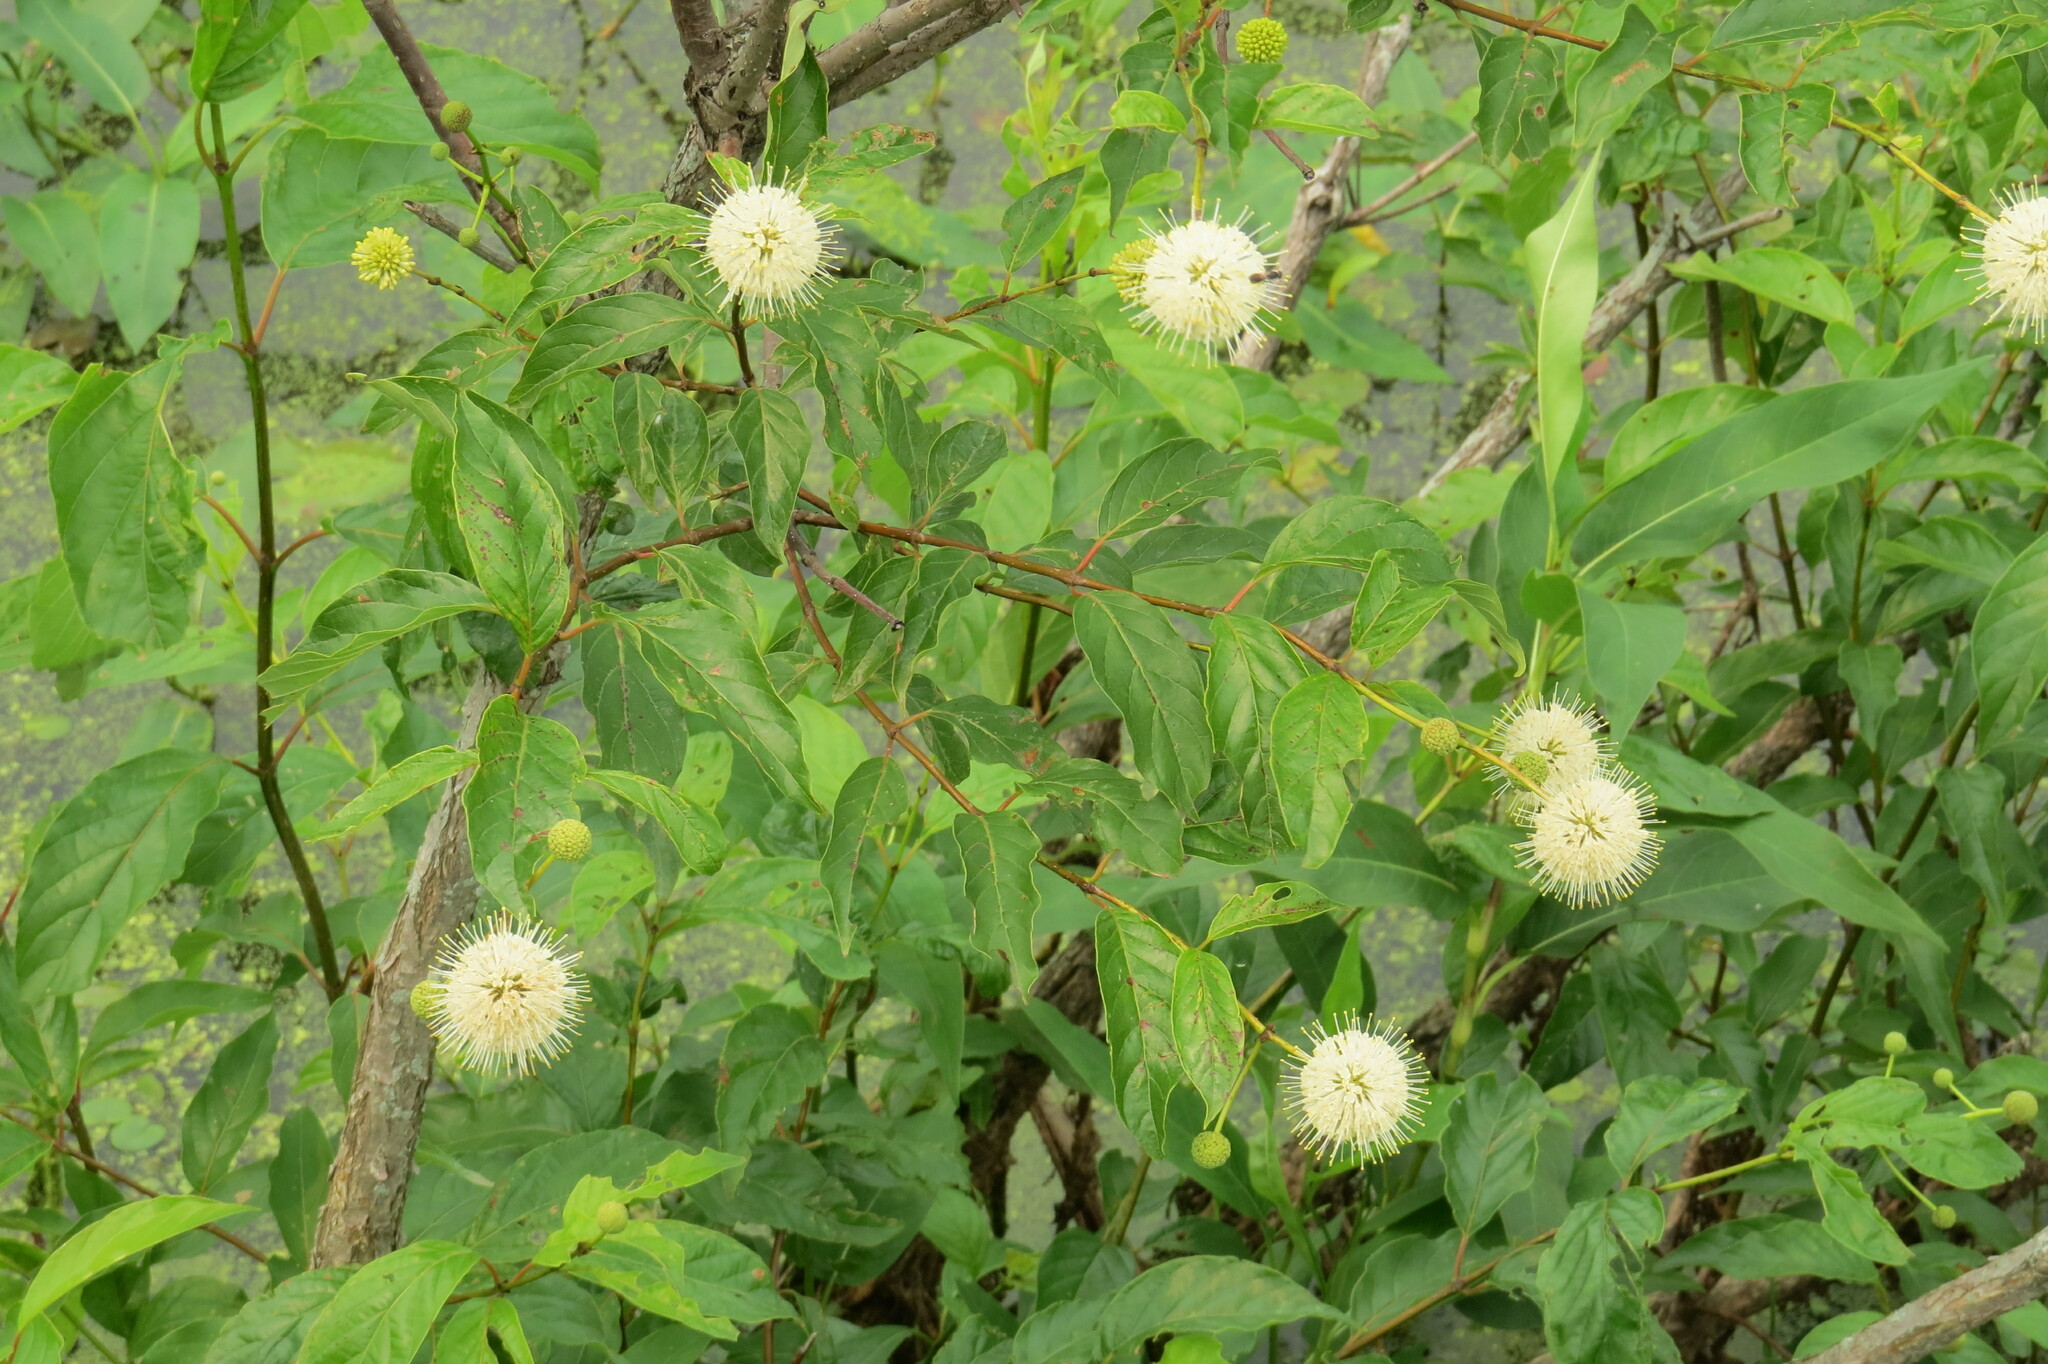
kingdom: Plantae
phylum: Tracheophyta
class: Magnoliopsida
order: Gentianales
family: Rubiaceae
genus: Cephalanthus
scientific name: Cephalanthus occidentalis
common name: Button-willow
